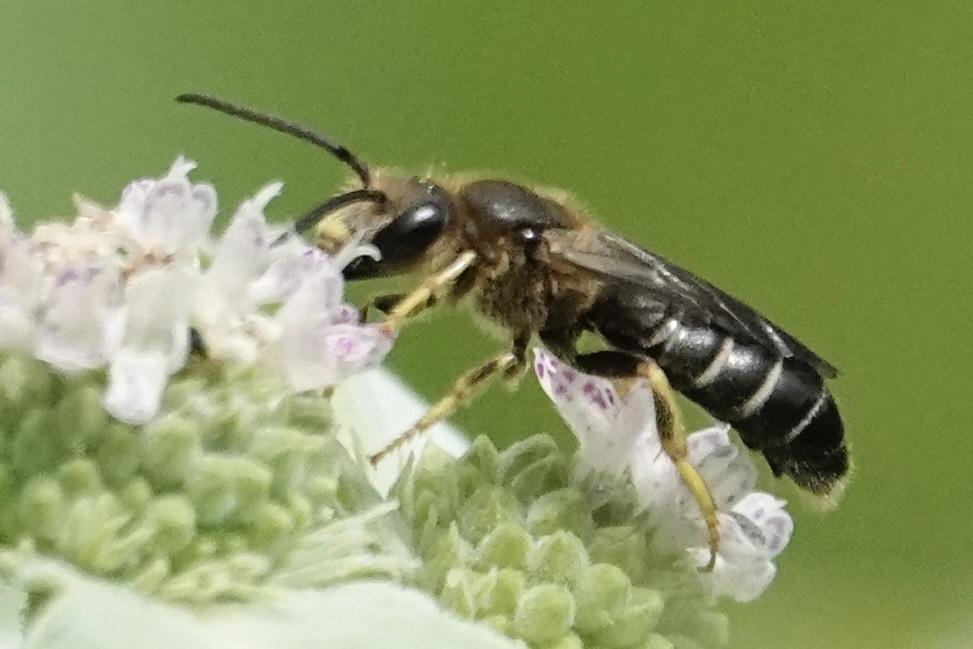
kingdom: Animalia
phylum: Arthropoda
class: Insecta
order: Hymenoptera
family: Halictidae
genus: Halictus
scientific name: Halictus rubicundus
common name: Orange-legged furrow bee
